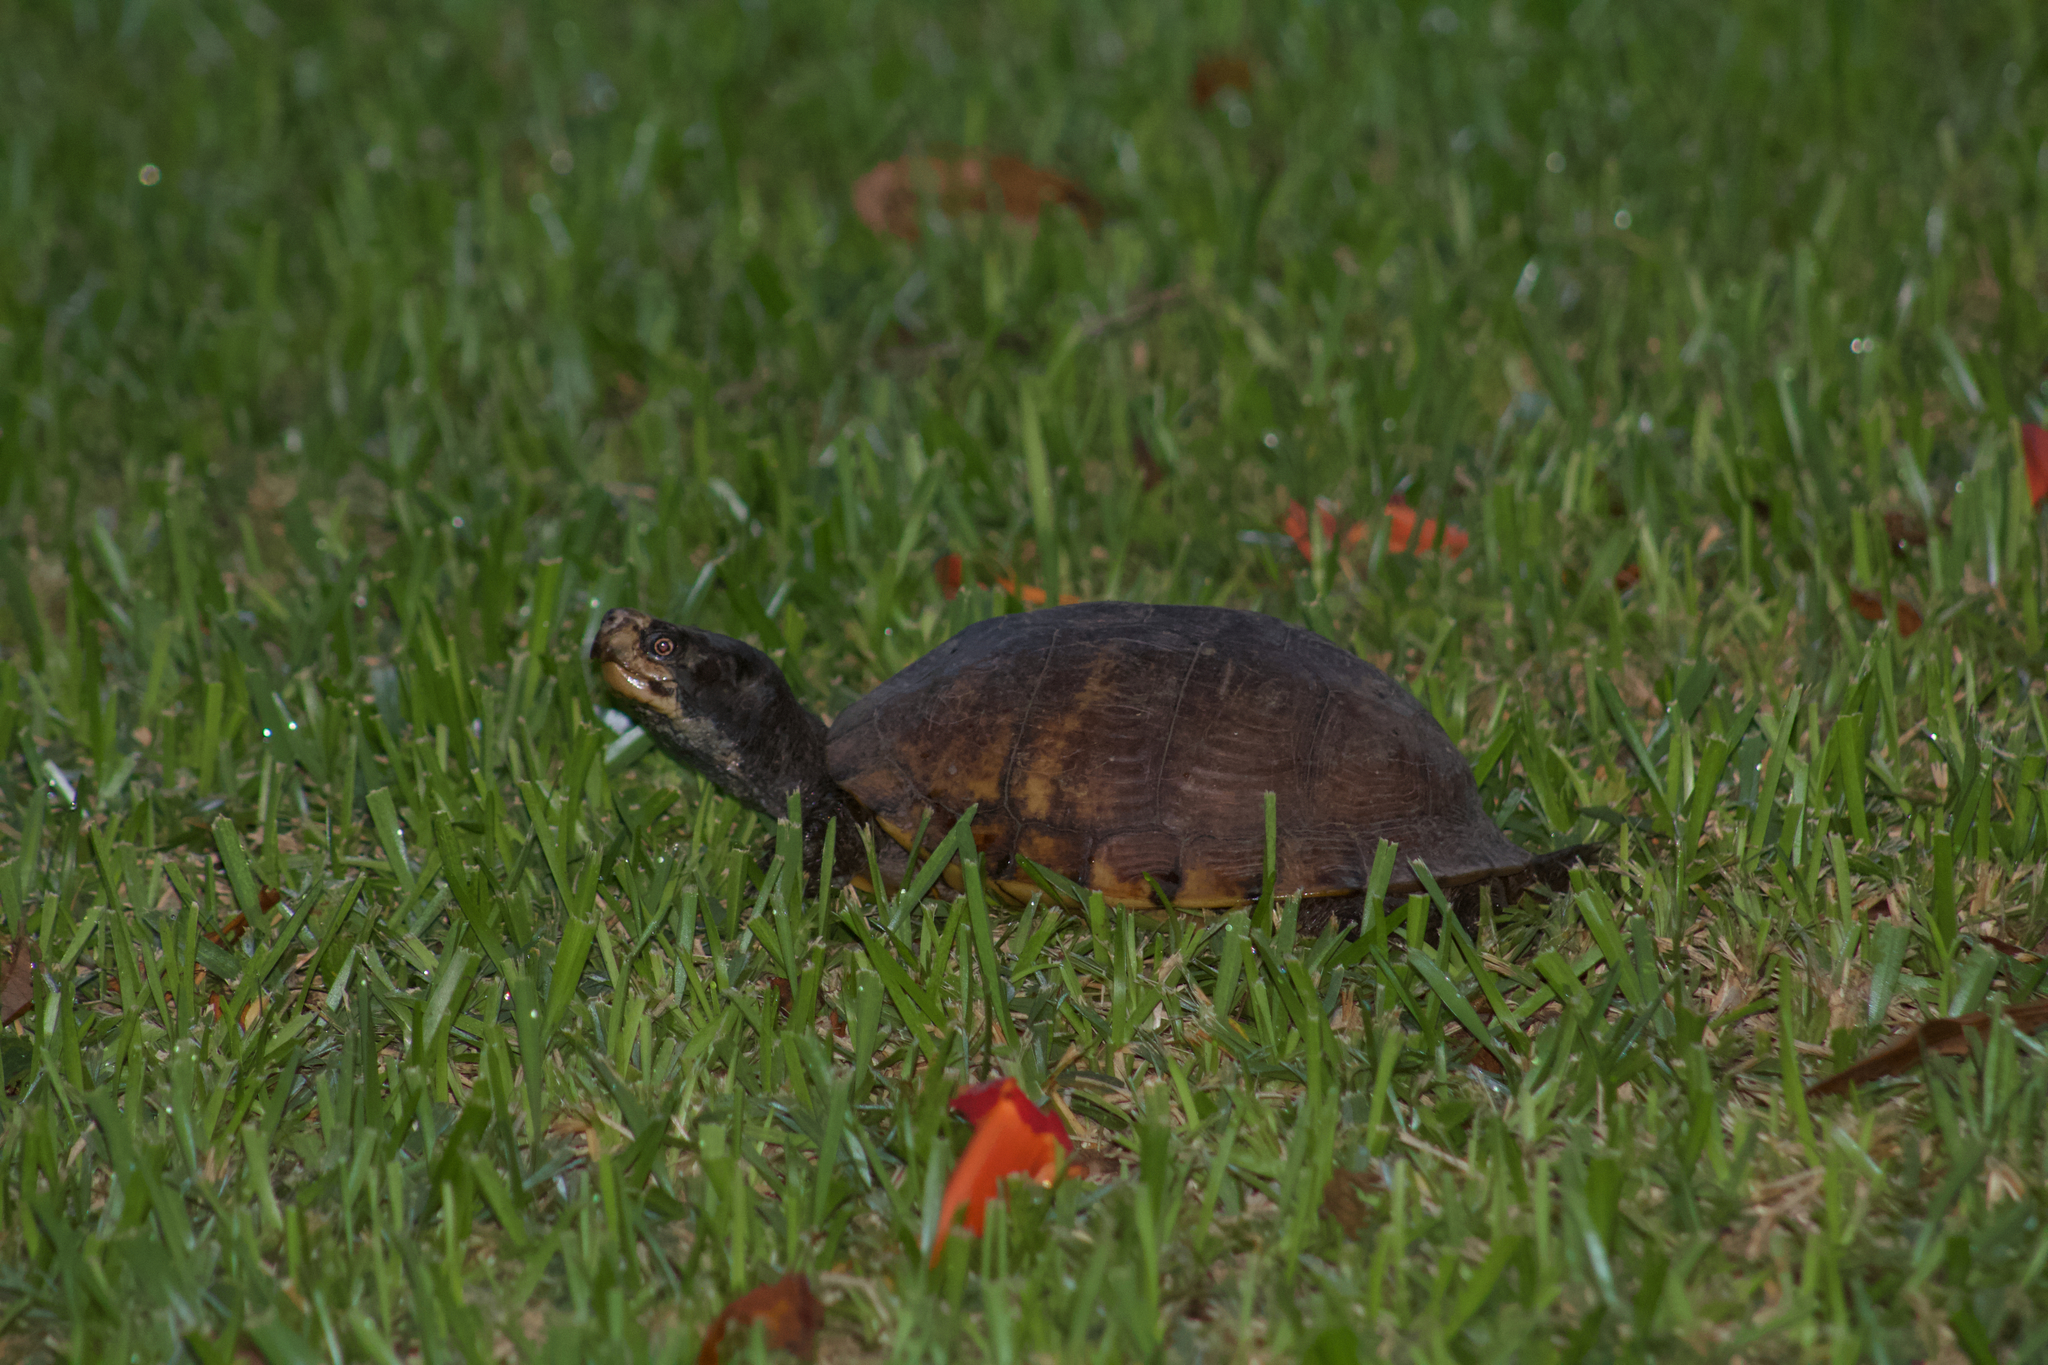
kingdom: Animalia
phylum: Chordata
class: Testudines
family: Emydidae
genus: Terrapene
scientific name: Terrapene carolina
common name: Common box turtle
